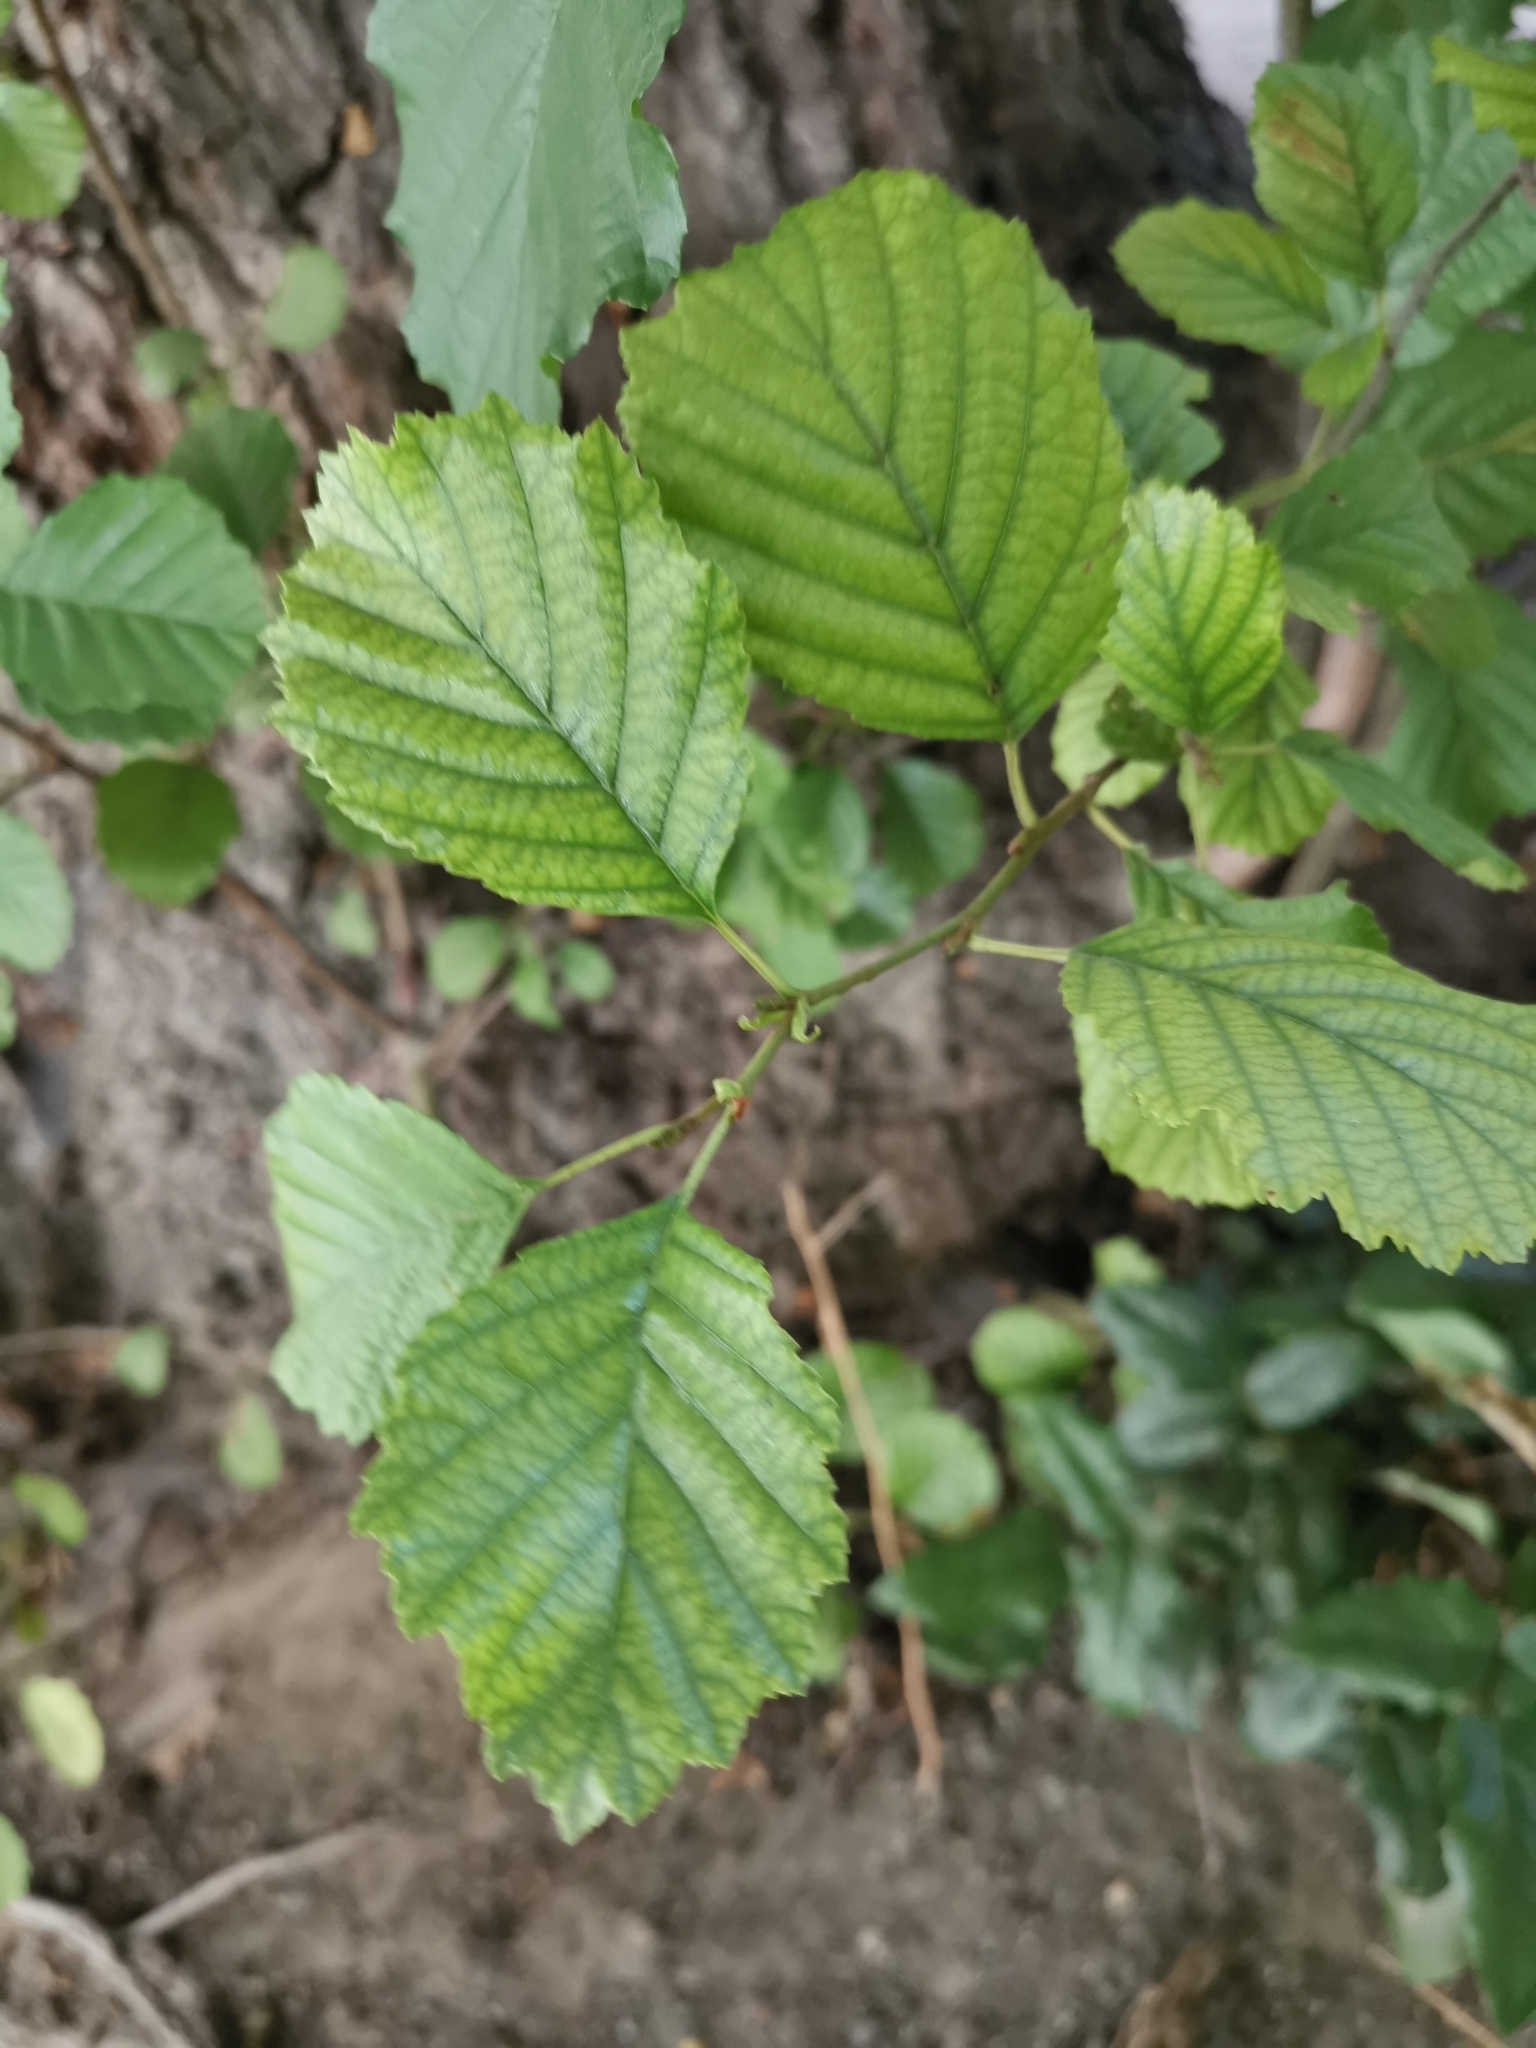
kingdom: Plantae
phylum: Tracheophyta
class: Magnoliopsida
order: Fagales
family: Betulaceae
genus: Alnus
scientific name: Alnus glutinosa
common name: Black alder
